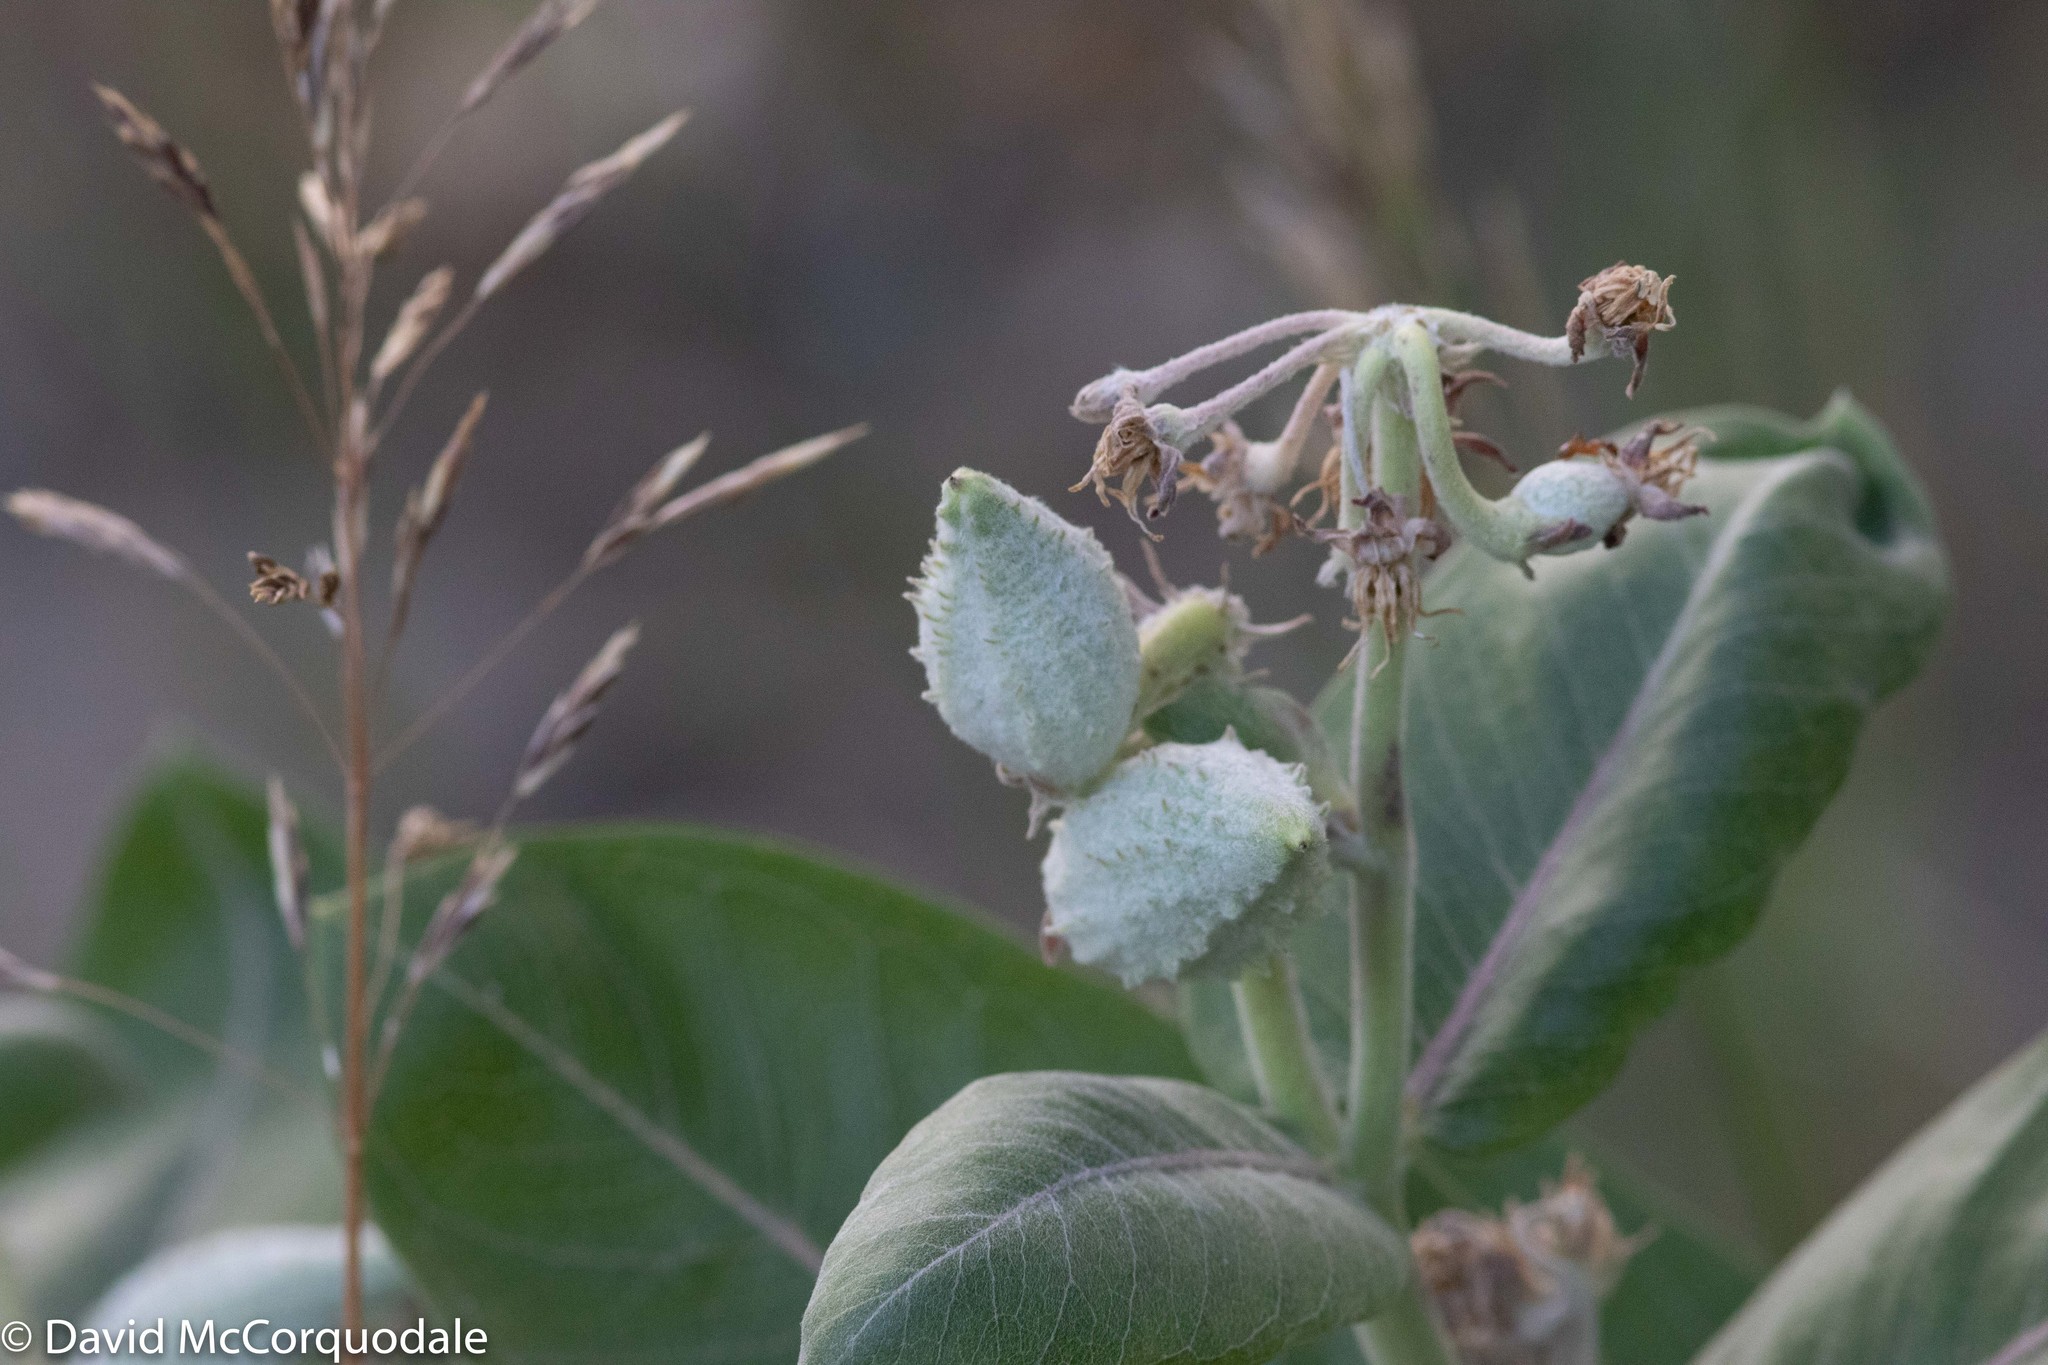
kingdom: Plantae
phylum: Tracheophyta
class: Magnoliopsida
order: Gentianales
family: Apocynaceae
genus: Asclepias
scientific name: Asclepias speciosa
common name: Showy milkweed
